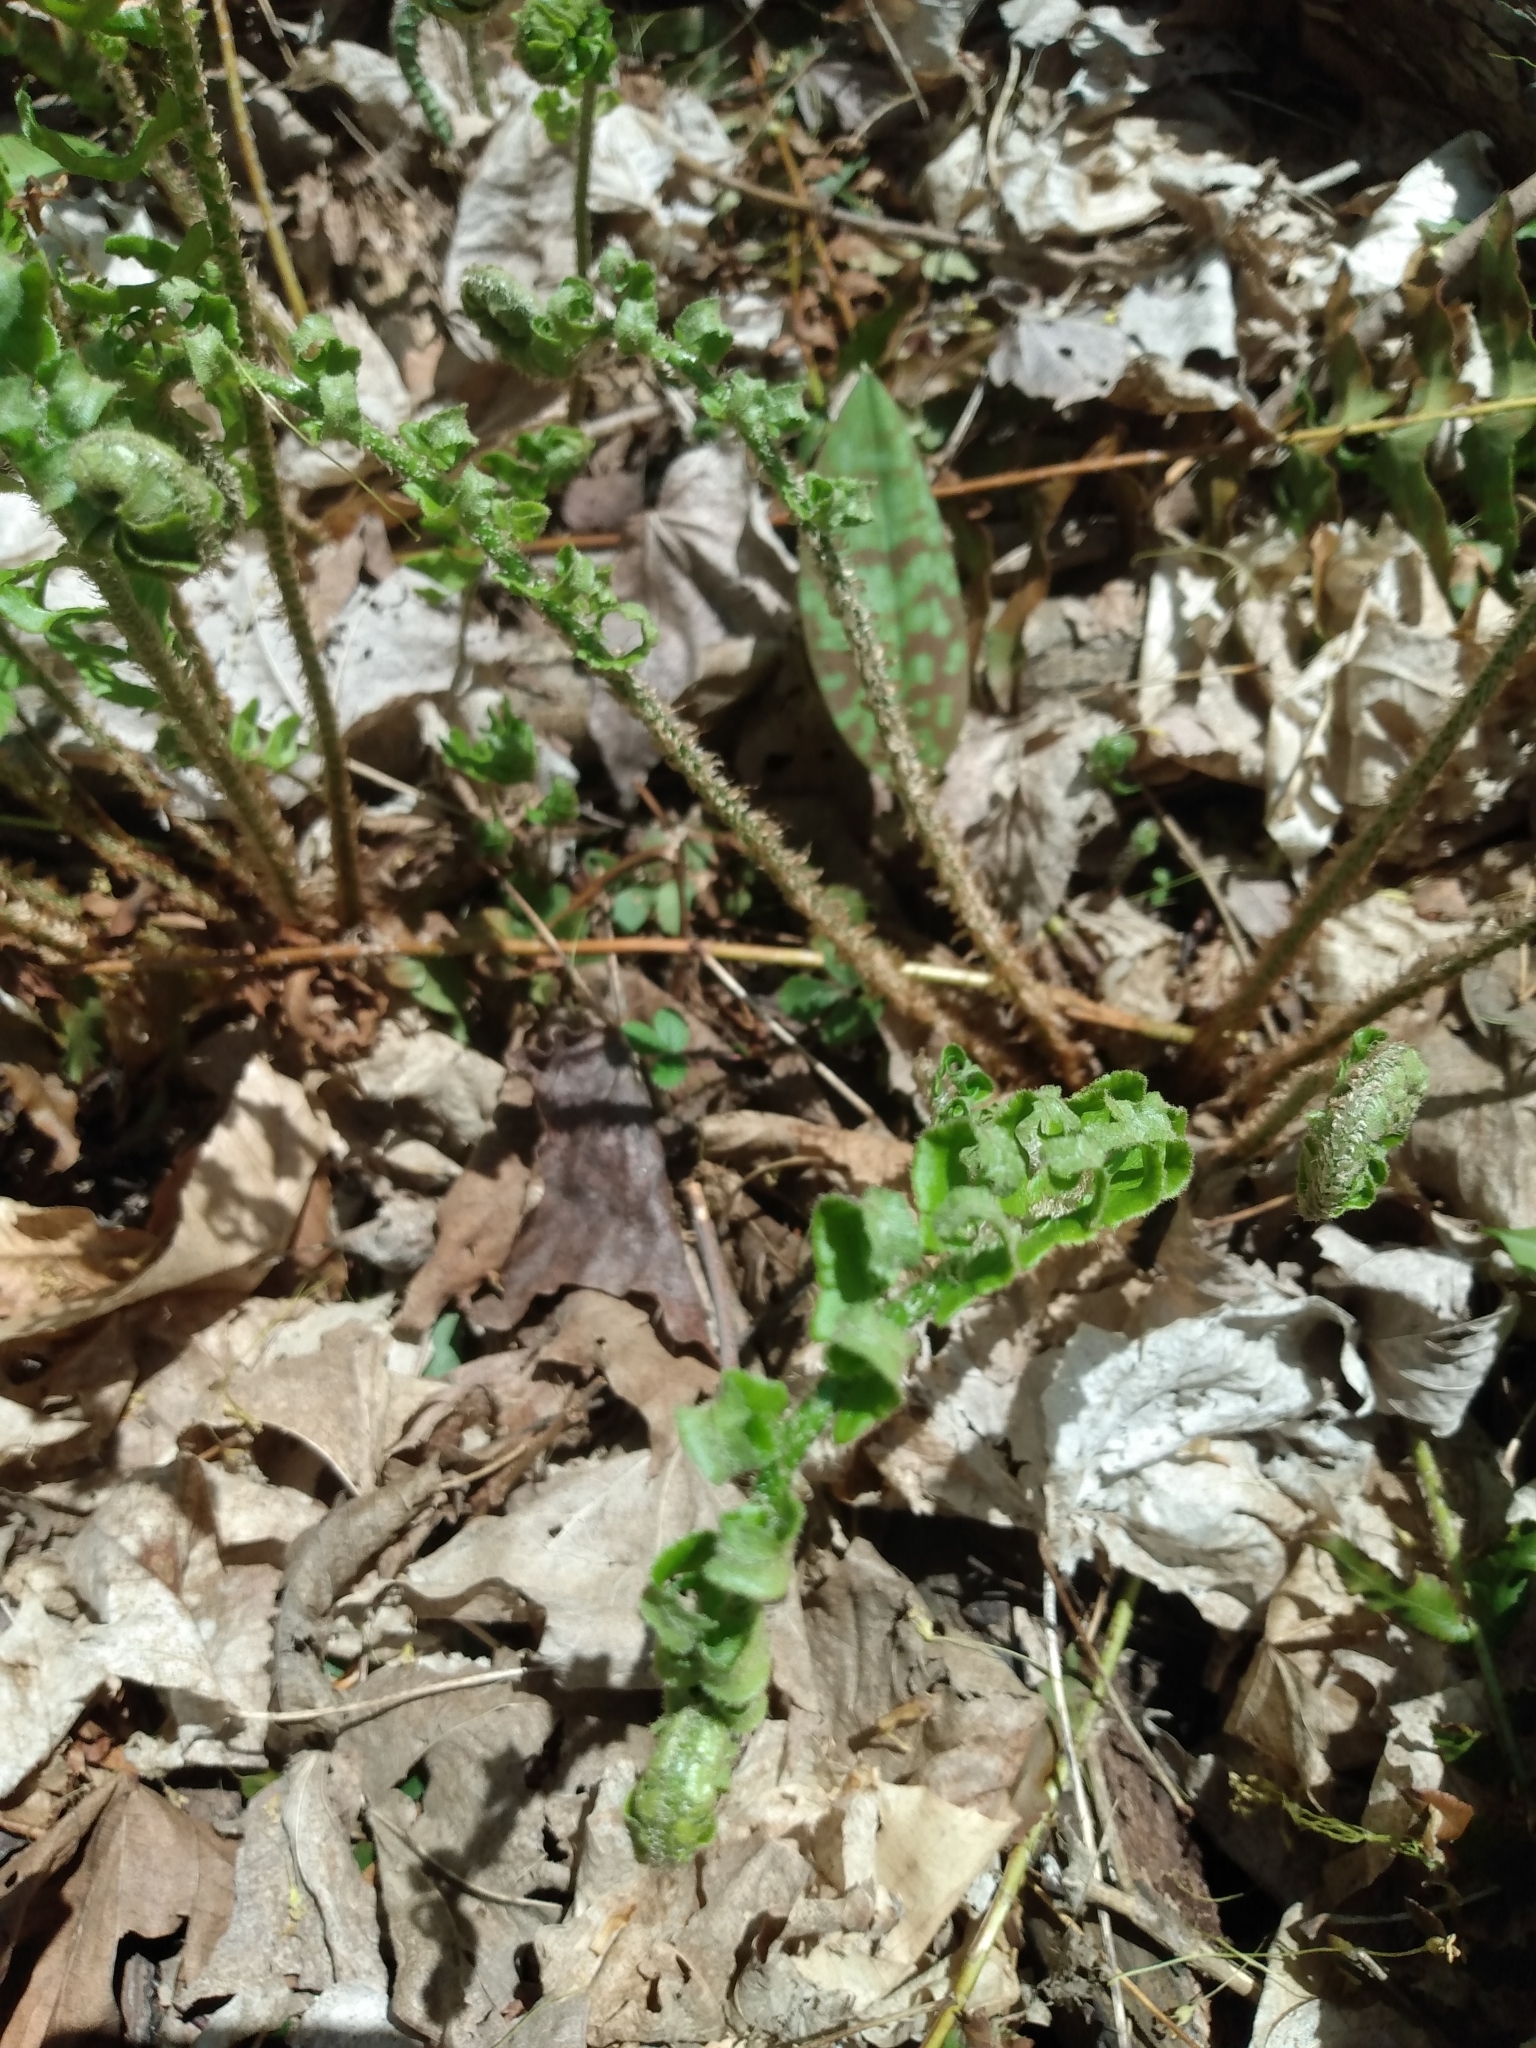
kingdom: Plantae
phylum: Tracheophyta
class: Polypodiopsida
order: Polypodiales
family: Dryopteridaceae
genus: Polystichum
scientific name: Polystichum acrostichoides
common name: Christmas fern
